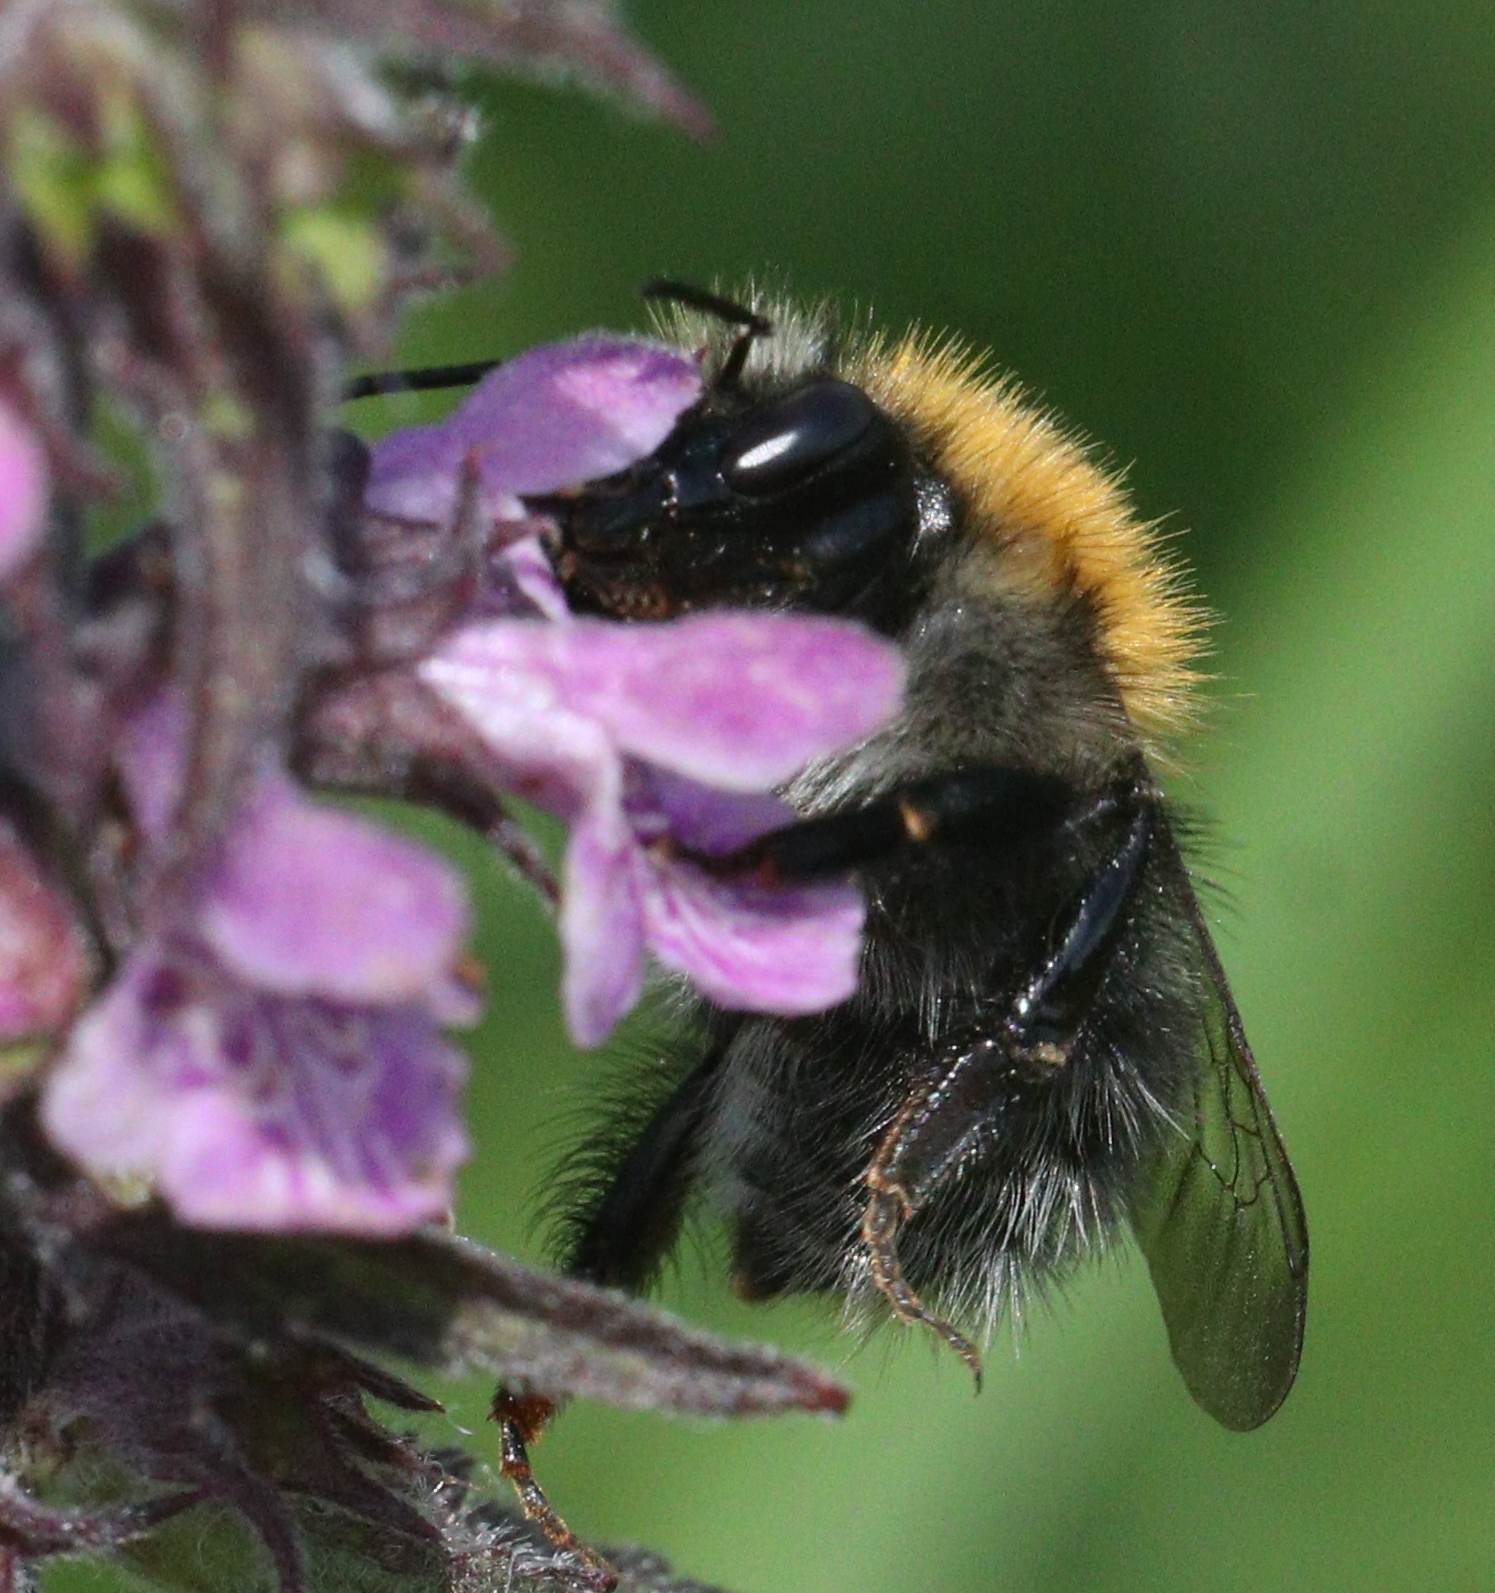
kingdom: Animalia
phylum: Arthropoda
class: Insecta
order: Hymenoptera
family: Apidae
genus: Bombus
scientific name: Bombus hypnorum
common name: New garden bumblebee
